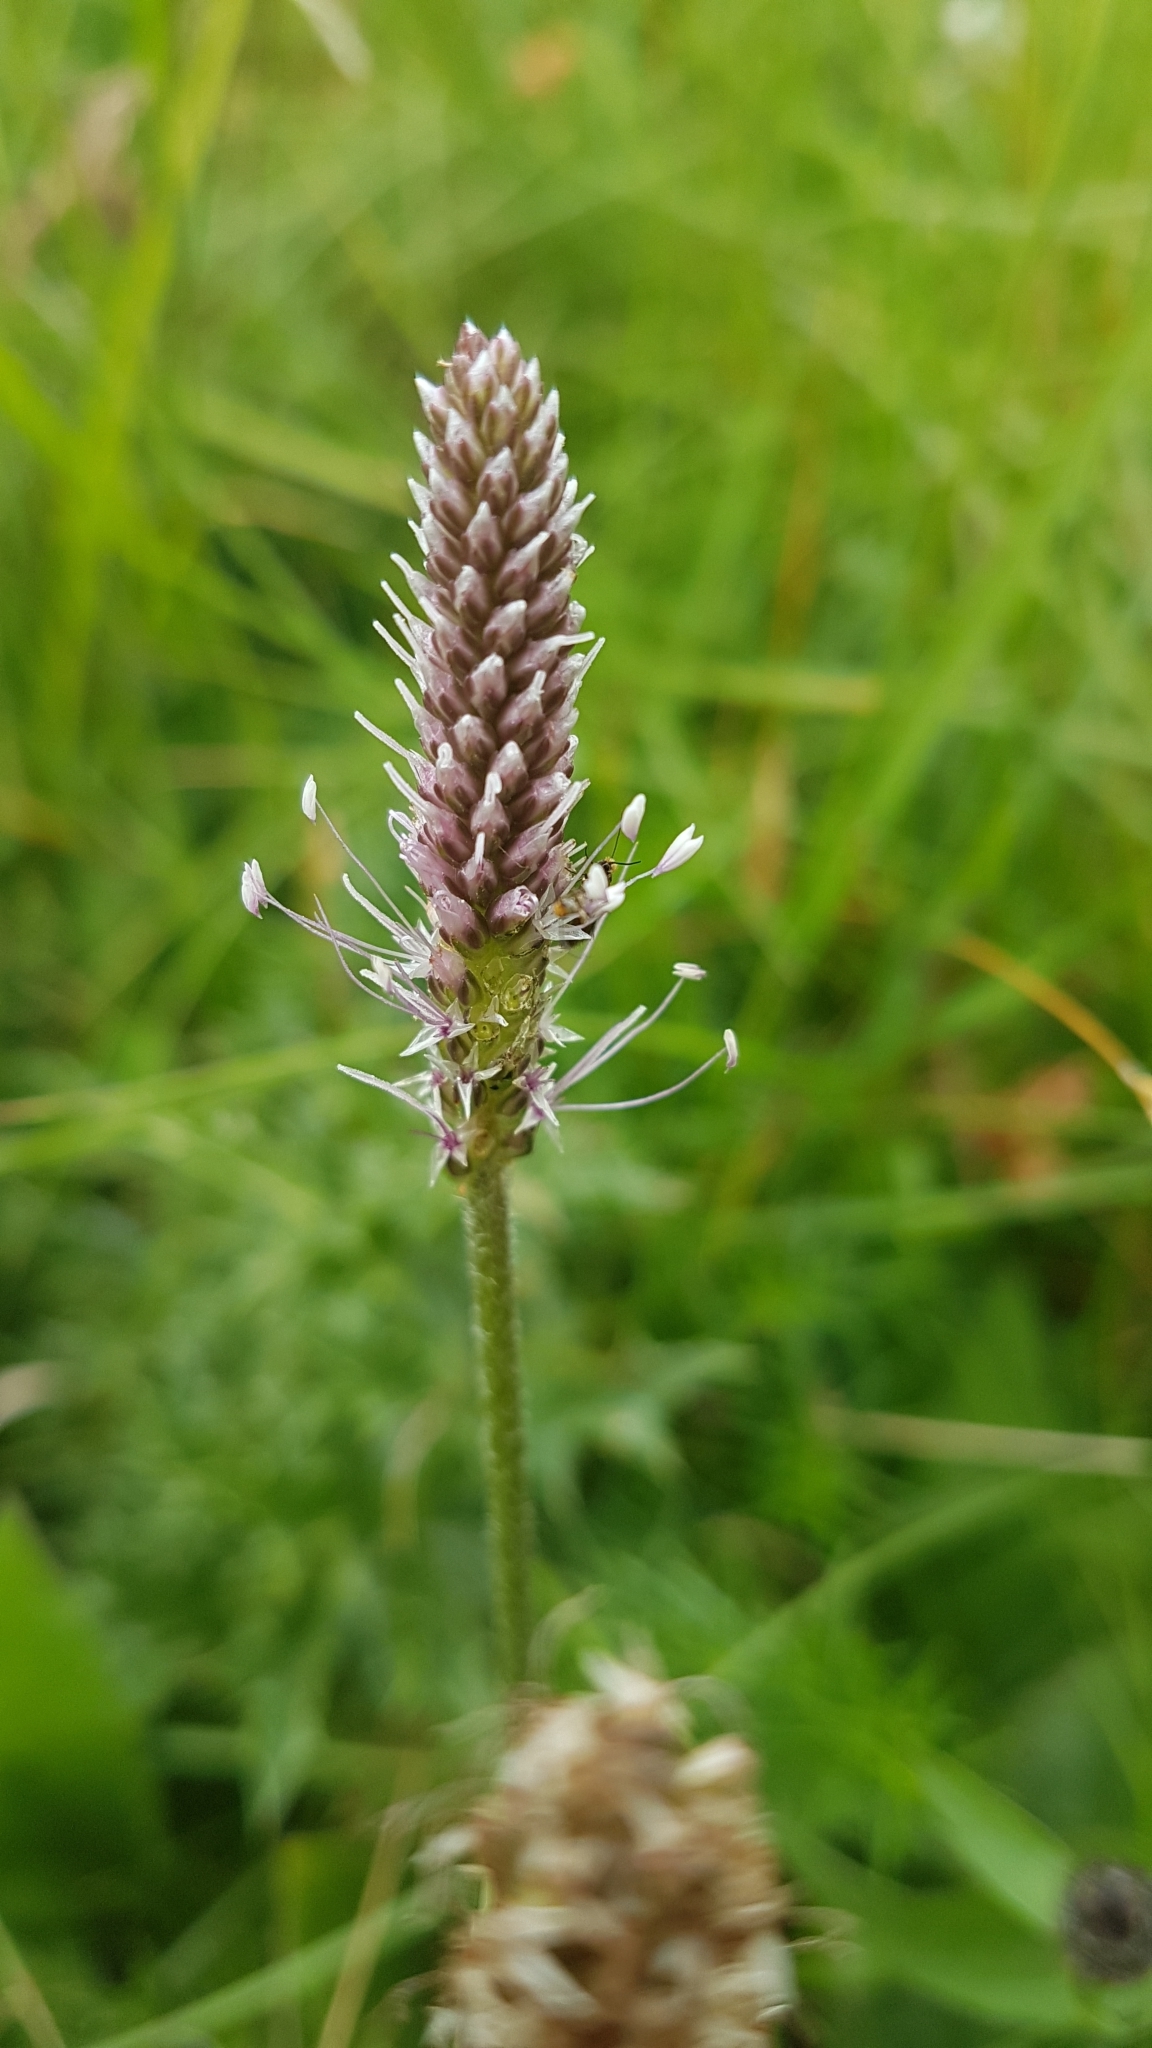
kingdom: Plantae
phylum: Tracheophyta
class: Magnoliopsida
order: Lamiales
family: Plantaginaceae
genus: Plantago
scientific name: Plantago media
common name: Hoary plantain
